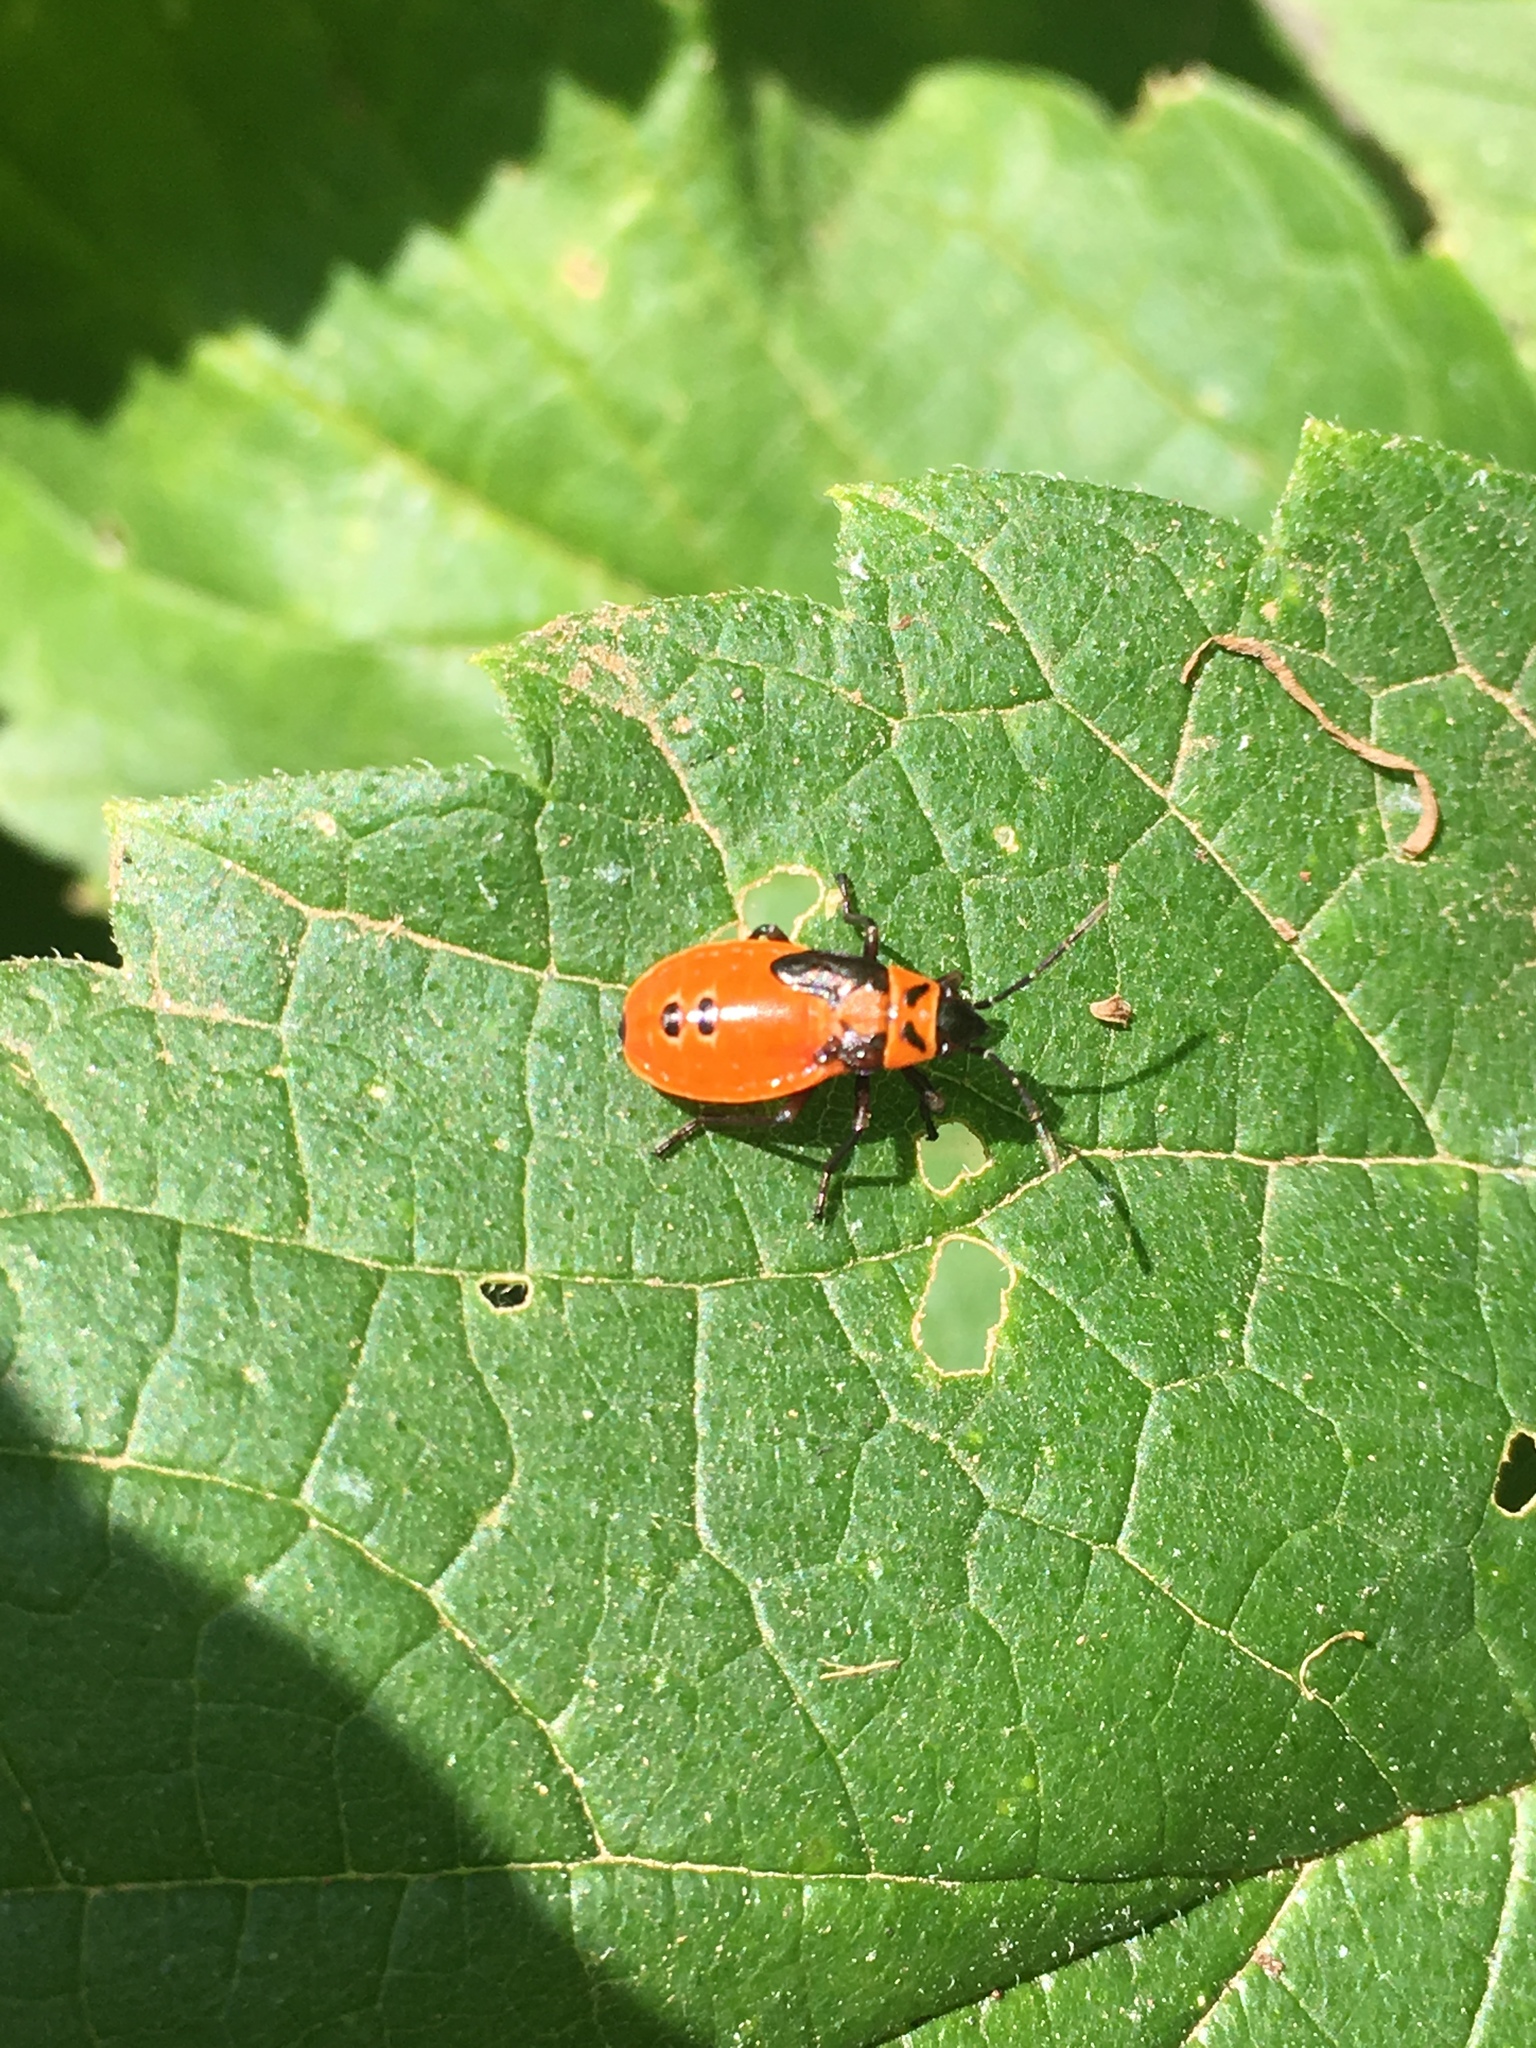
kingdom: Animalia
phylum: Arthropoda
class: Insecta
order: Hemiptera
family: Lygaeidae
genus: Lygaeus
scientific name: Lygaeus turcicus
